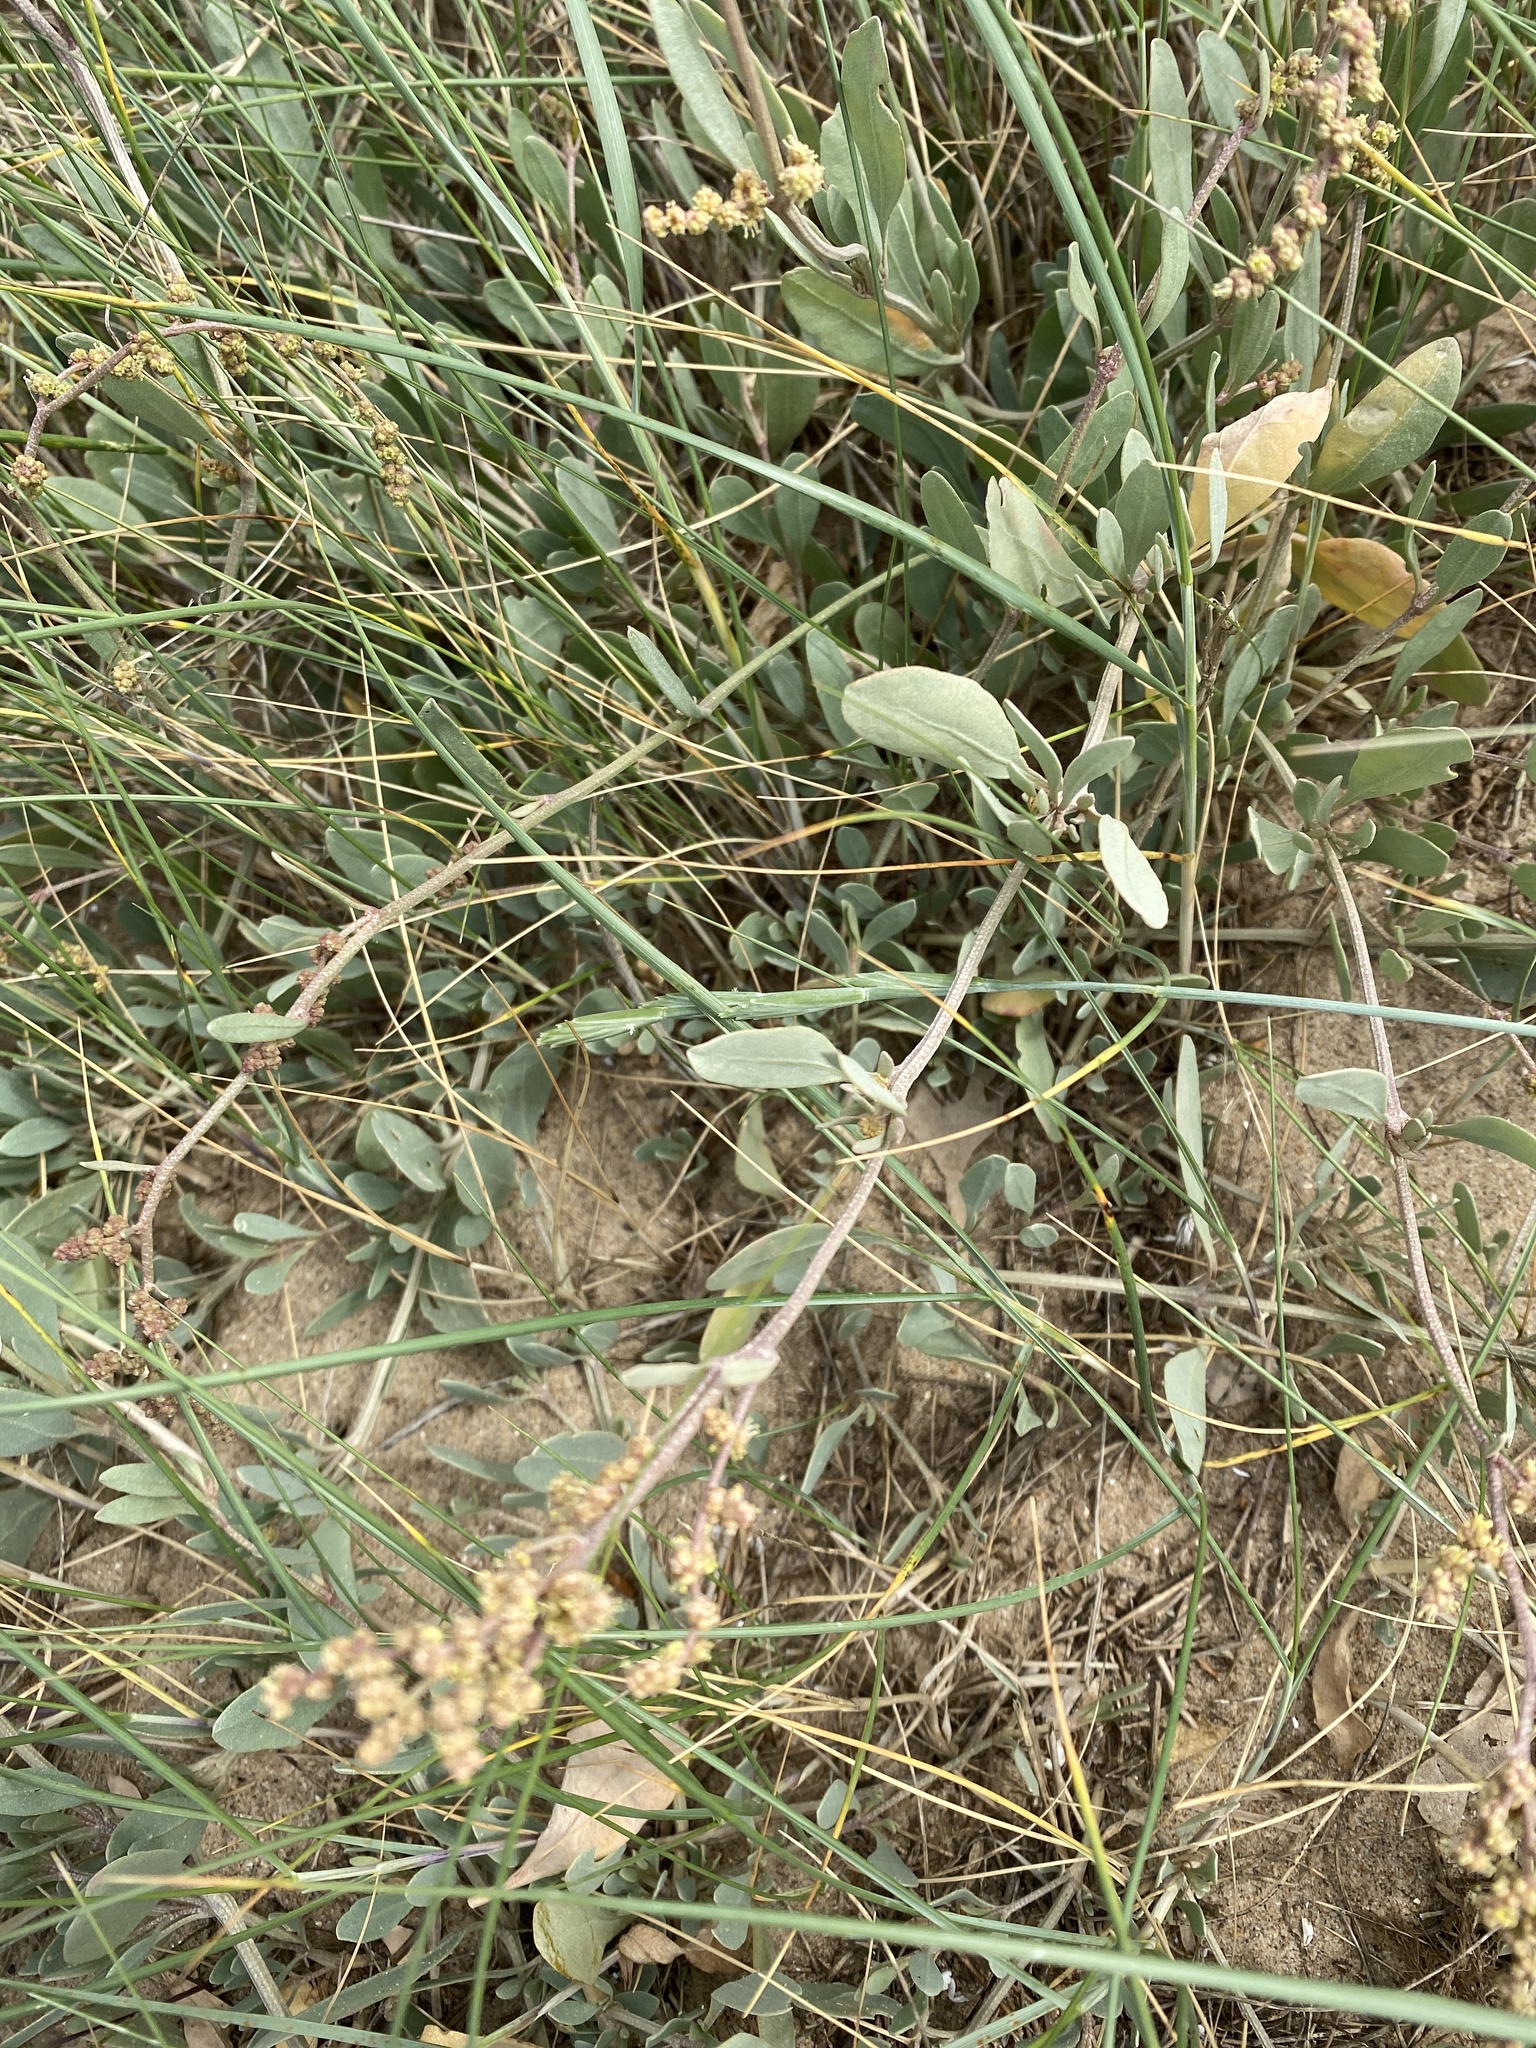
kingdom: Plantae
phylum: Tracheophyta
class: Magnoliopsida
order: Caryophyllales
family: Amaranthaceae
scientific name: Amaranthaceae
